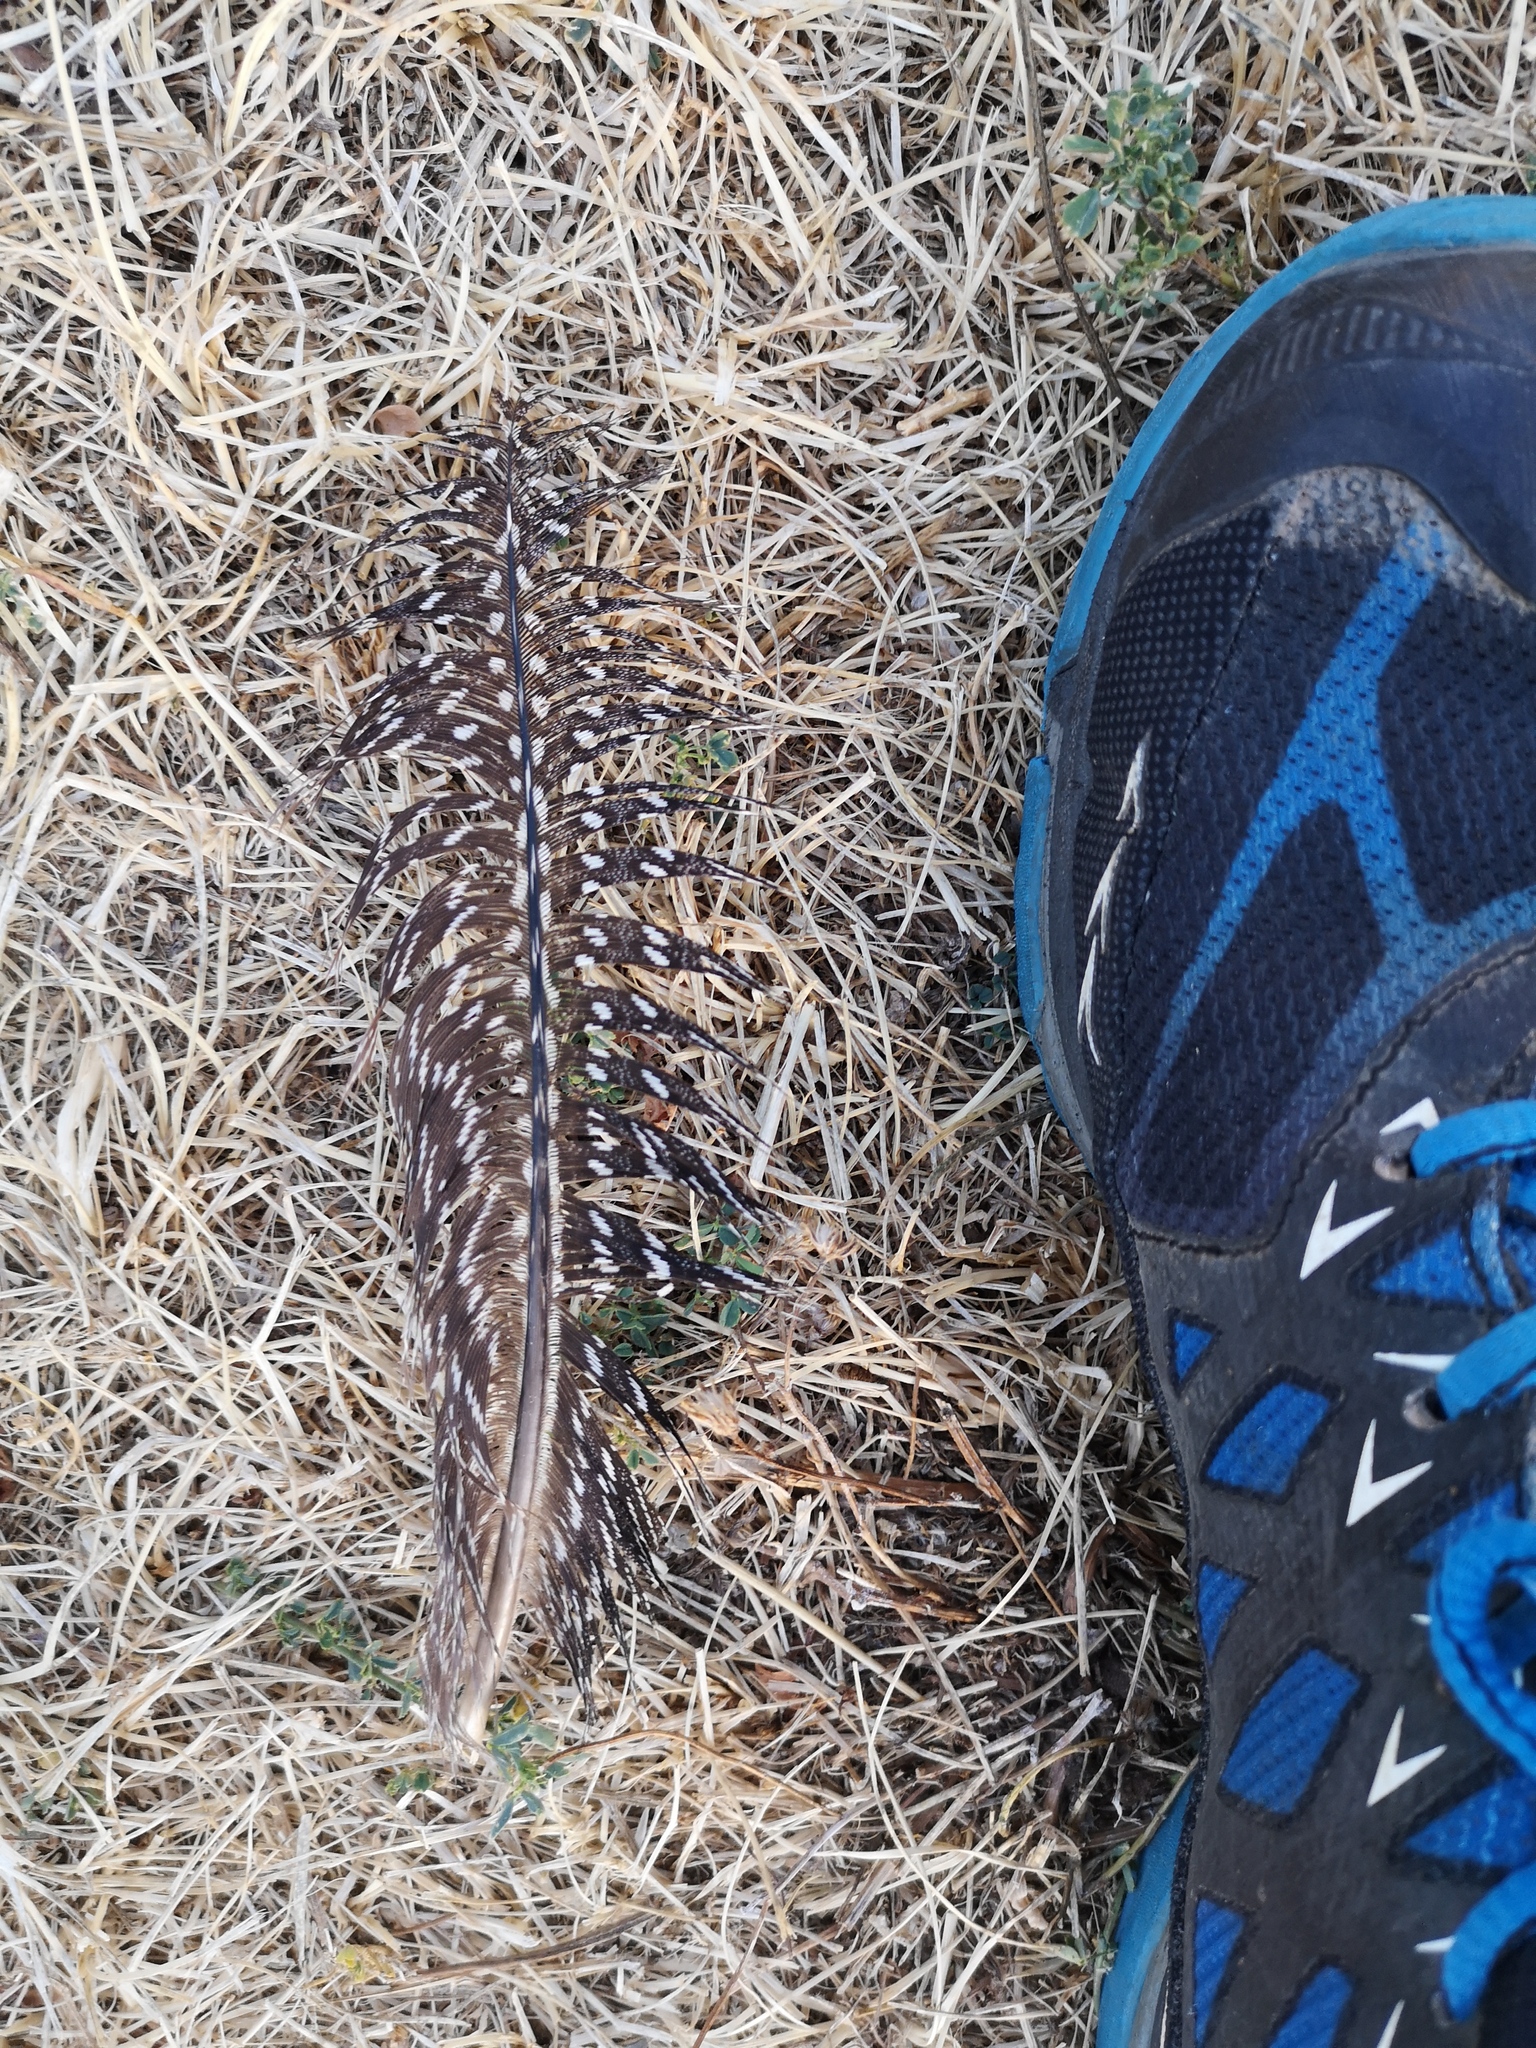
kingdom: Animalia
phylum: Chordata
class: Aves
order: Galliformes
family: Numididae
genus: Numida
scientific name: Numida meleagris
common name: Helmeted guineafowl
